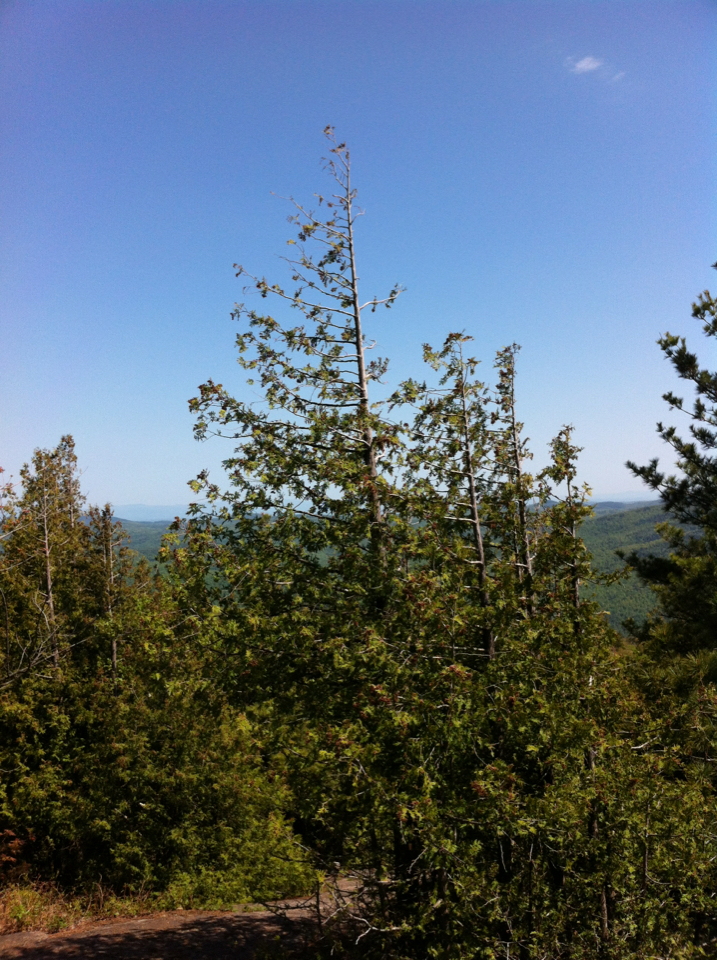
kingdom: Plantae
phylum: Tracheophyta
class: Pinopsida
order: Pinales
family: Cupressaceae
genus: Thuja
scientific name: Thuja occidentalis
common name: Northern white-cedar
